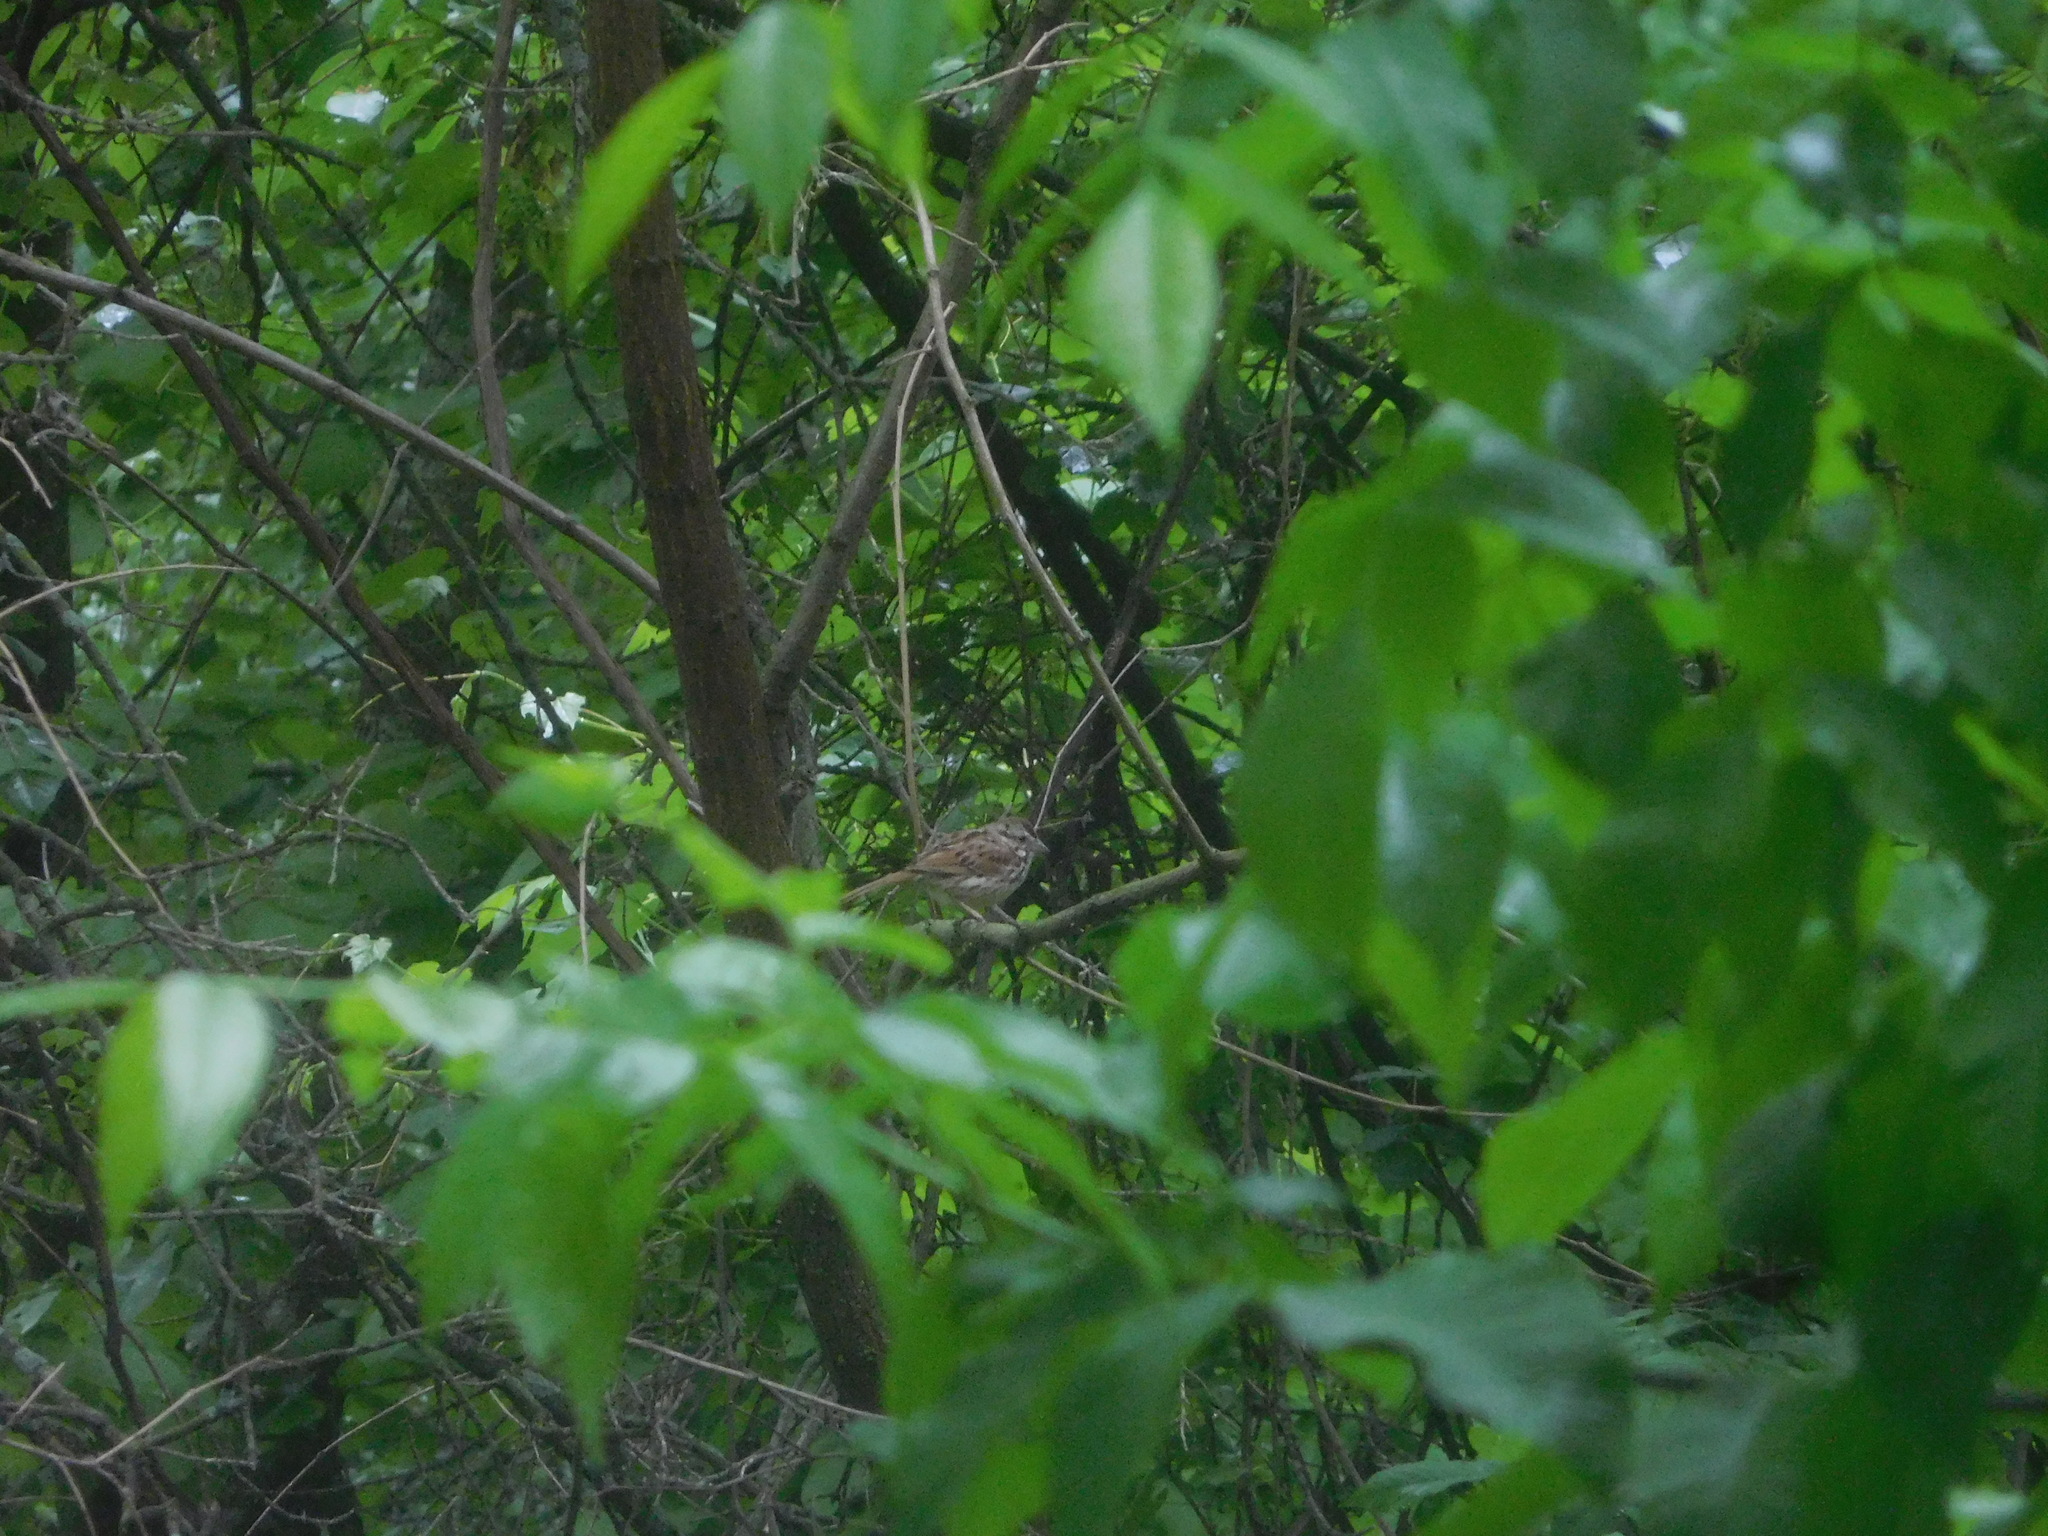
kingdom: Animalia
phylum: Chordata
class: Aves
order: Passeriformes
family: Passerellidae
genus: Melospiza
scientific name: Melospiza melodia
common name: Song sparrow
